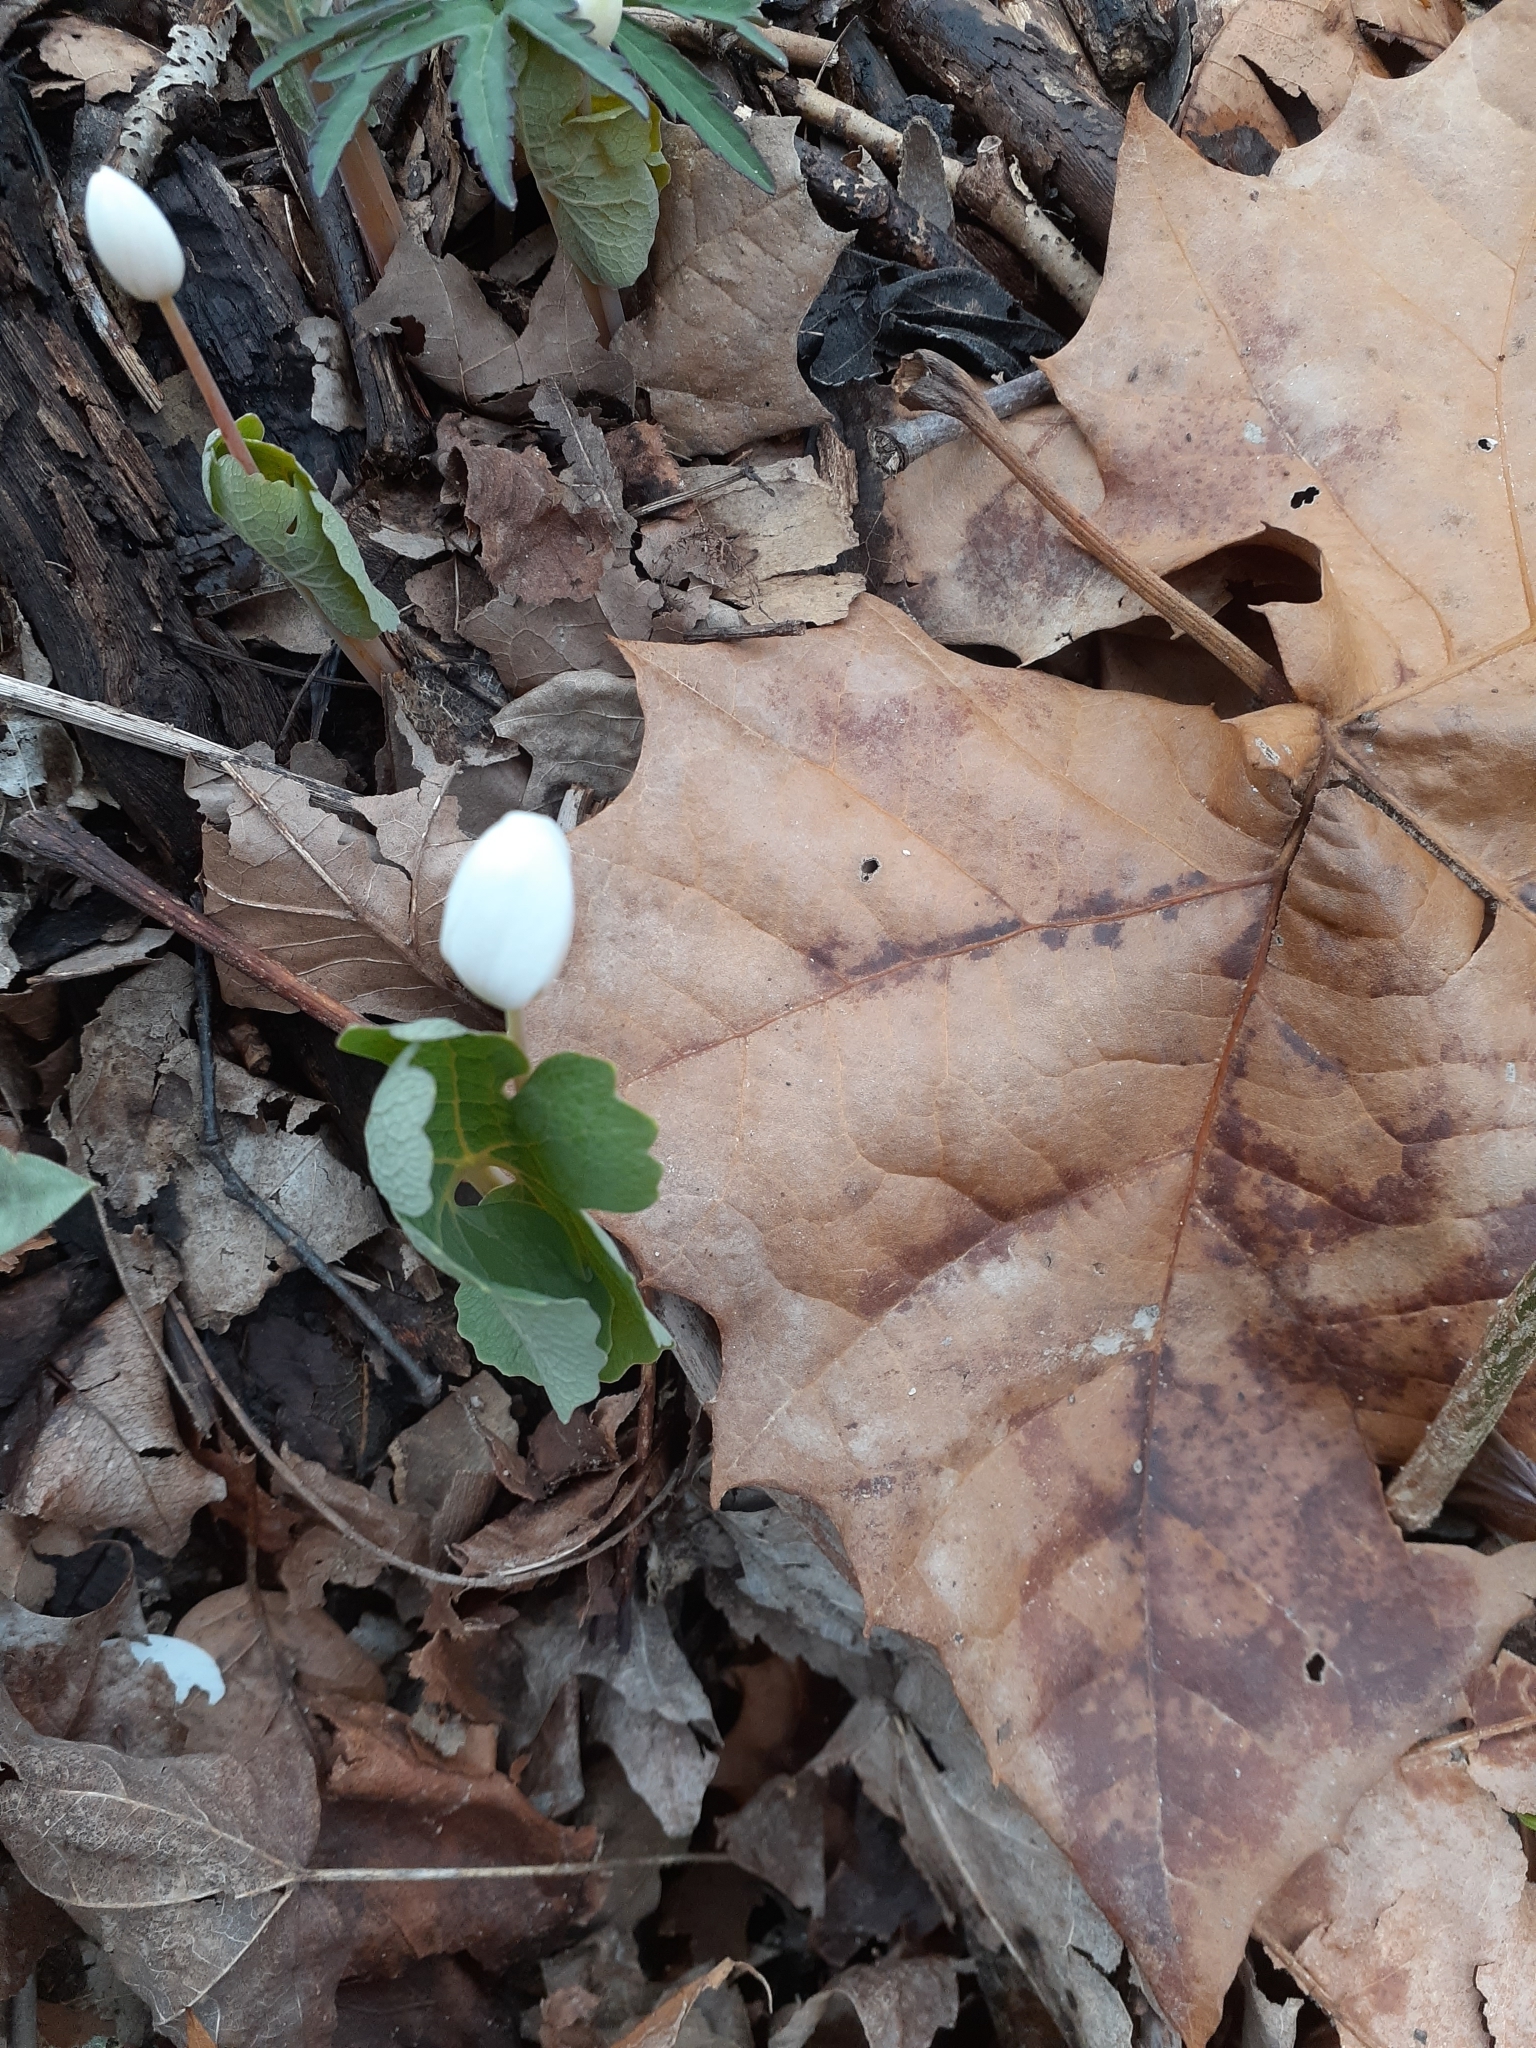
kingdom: Plantae
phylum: Tracheophyta
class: Magnoliopsida
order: Ranunculales
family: Papaveraceae
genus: Sanguinaria
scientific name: Sanguinaria canadensis
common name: Bloodroot
